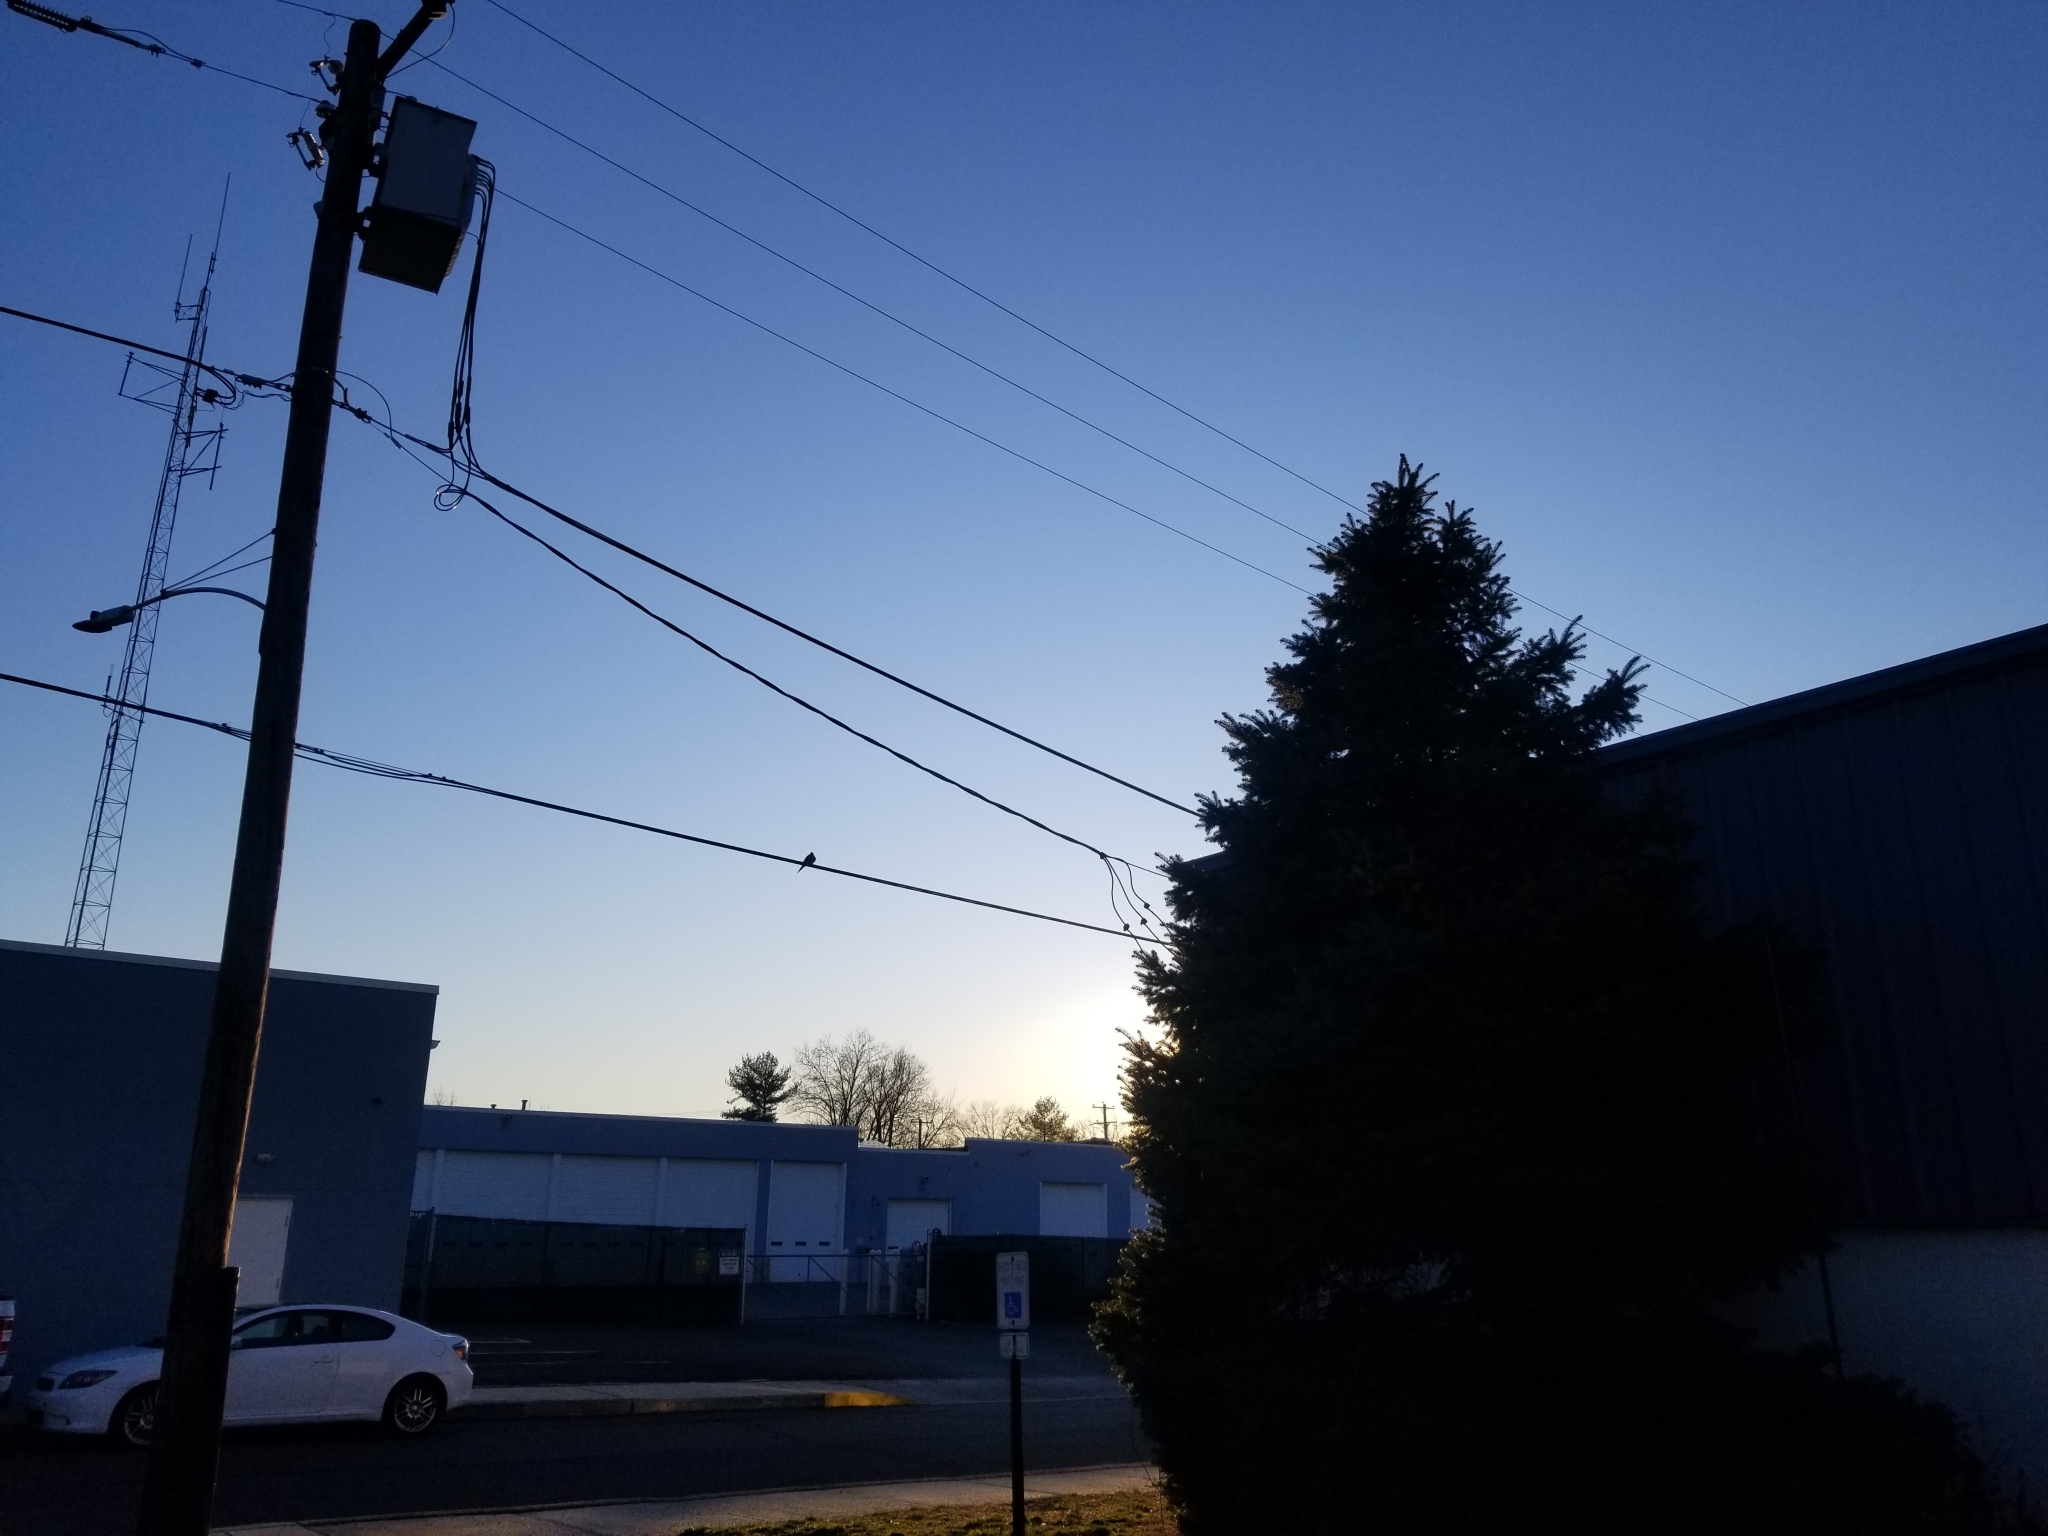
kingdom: Animalia
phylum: Chordata
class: Aves
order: Columbiformes
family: Columbidae
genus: Zenaida
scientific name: Zenaida macroura
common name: Mourning dove
